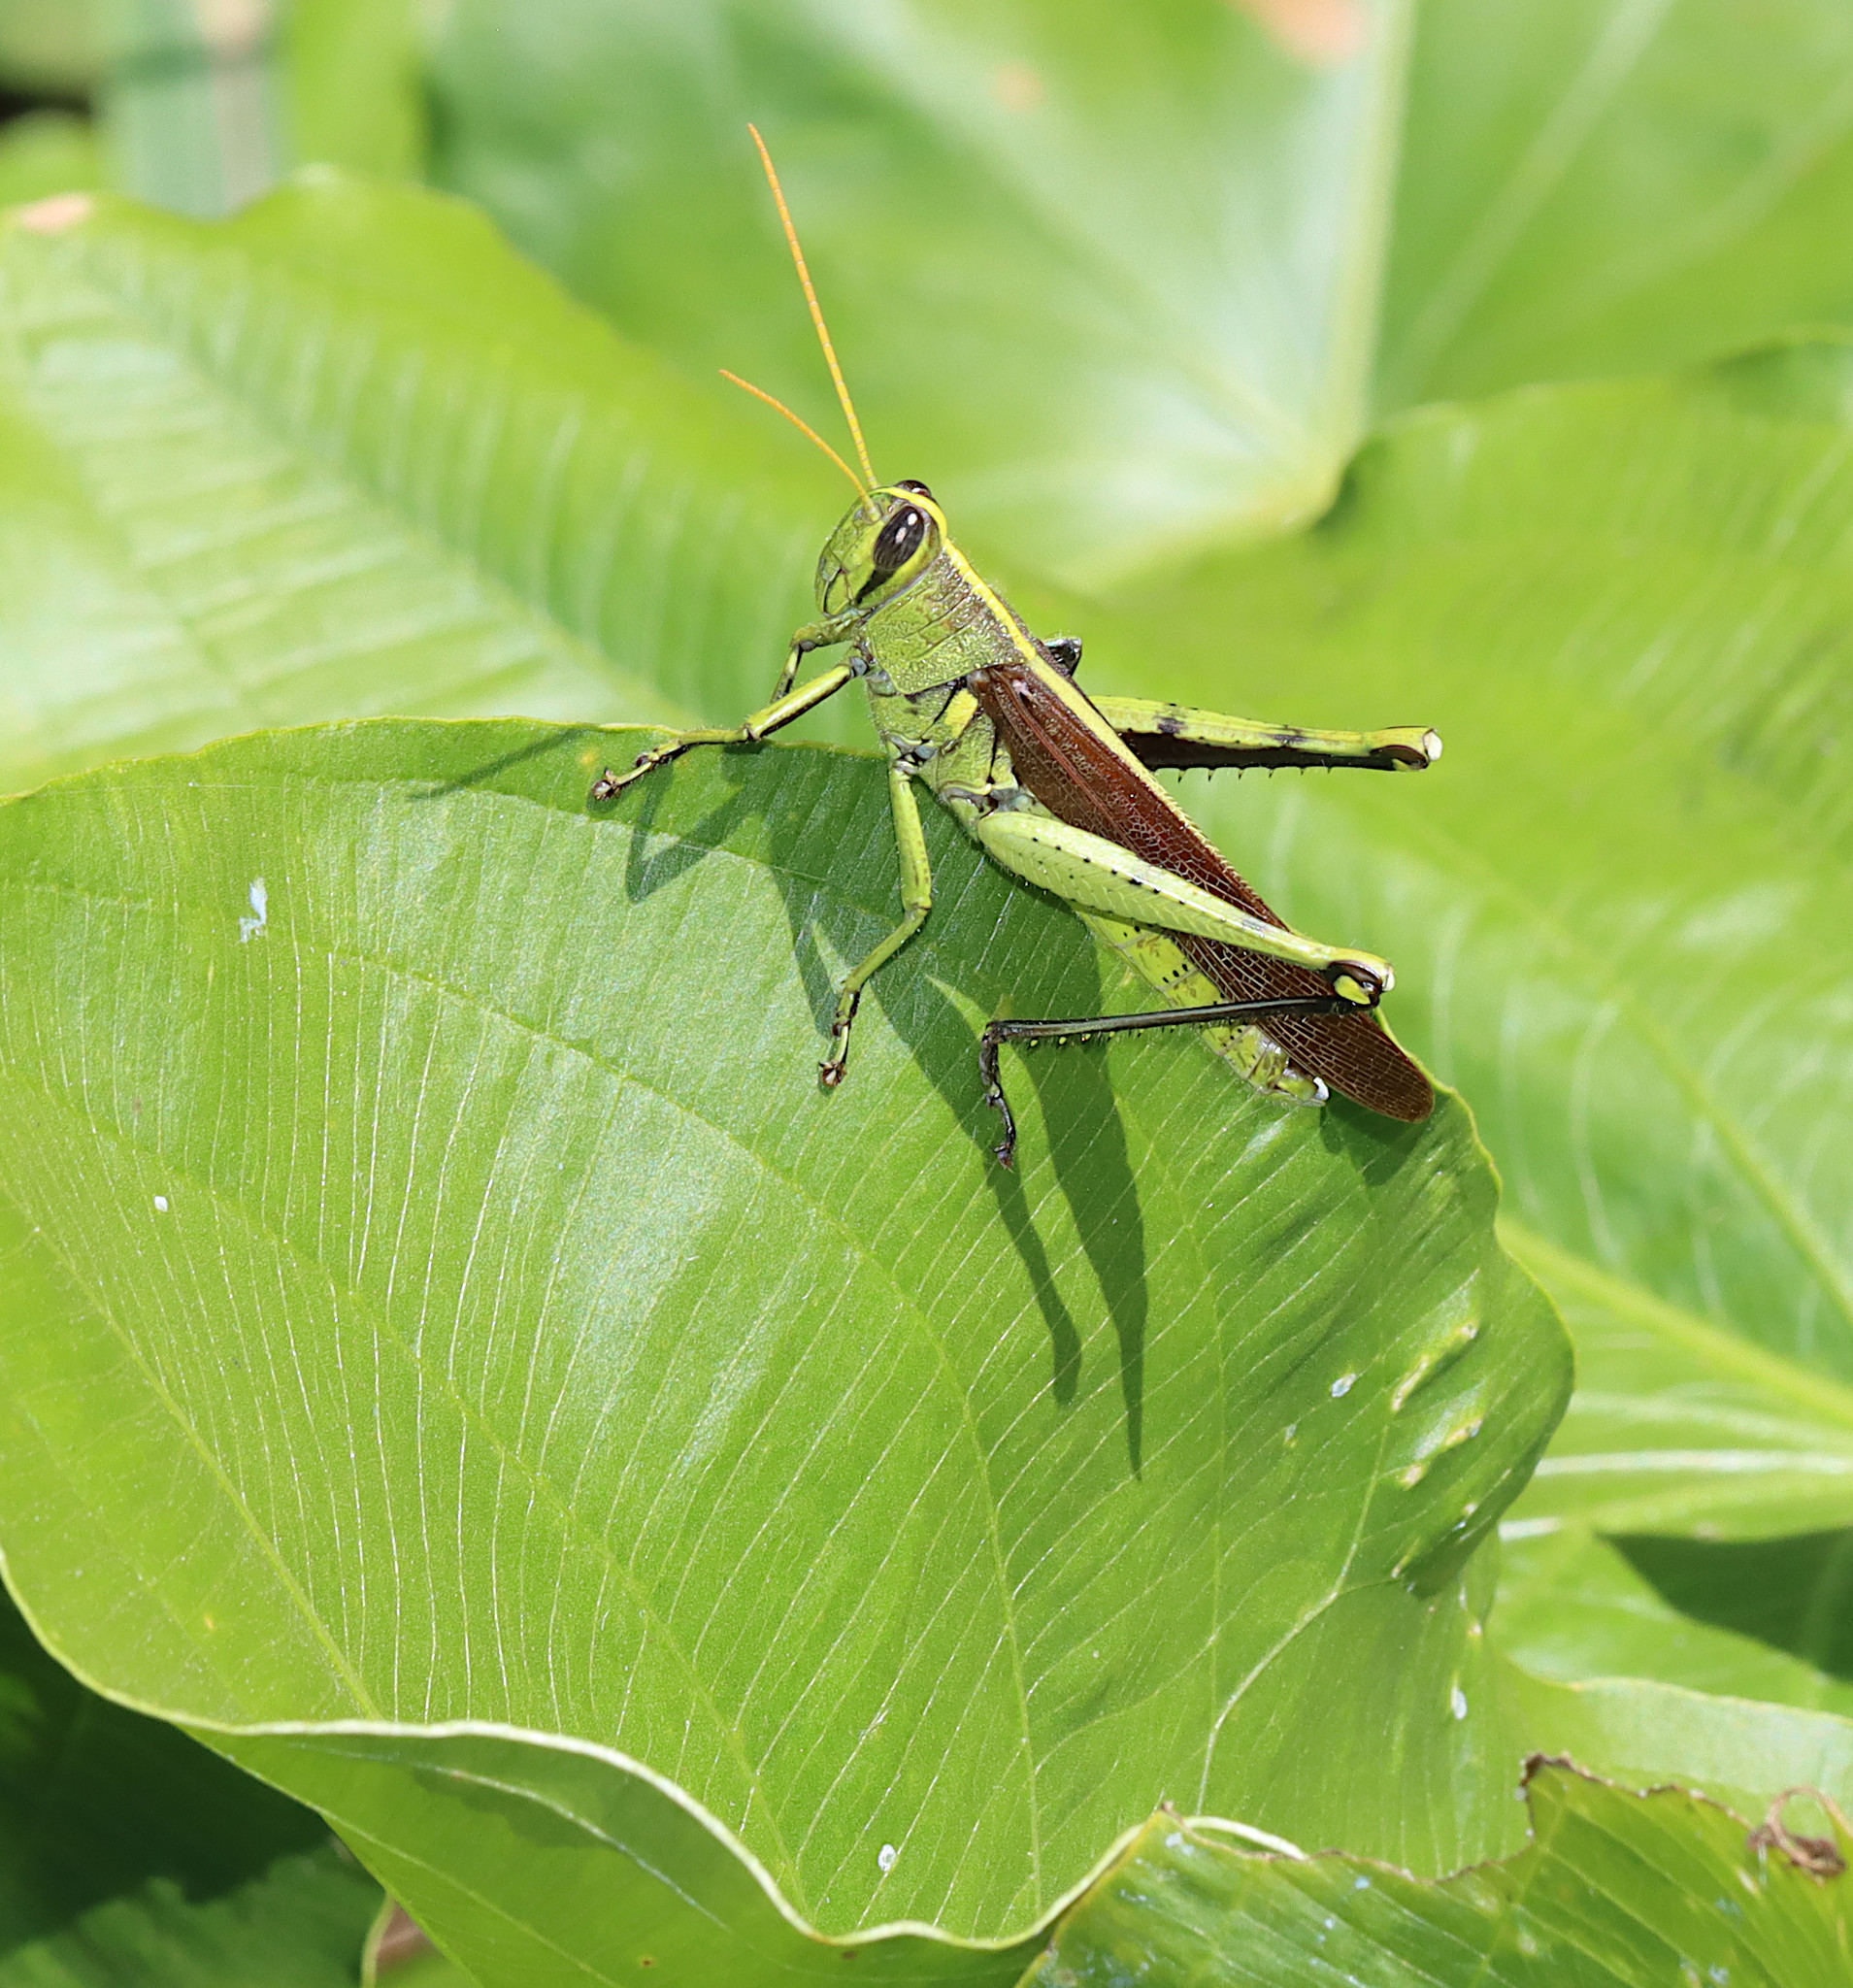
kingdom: Animalia
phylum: Arthropoda
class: Insecta
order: Orthoptera
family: Acrididae
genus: Schistocerca
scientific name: Schistocerca obscura
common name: Obscure bird grasshopper
